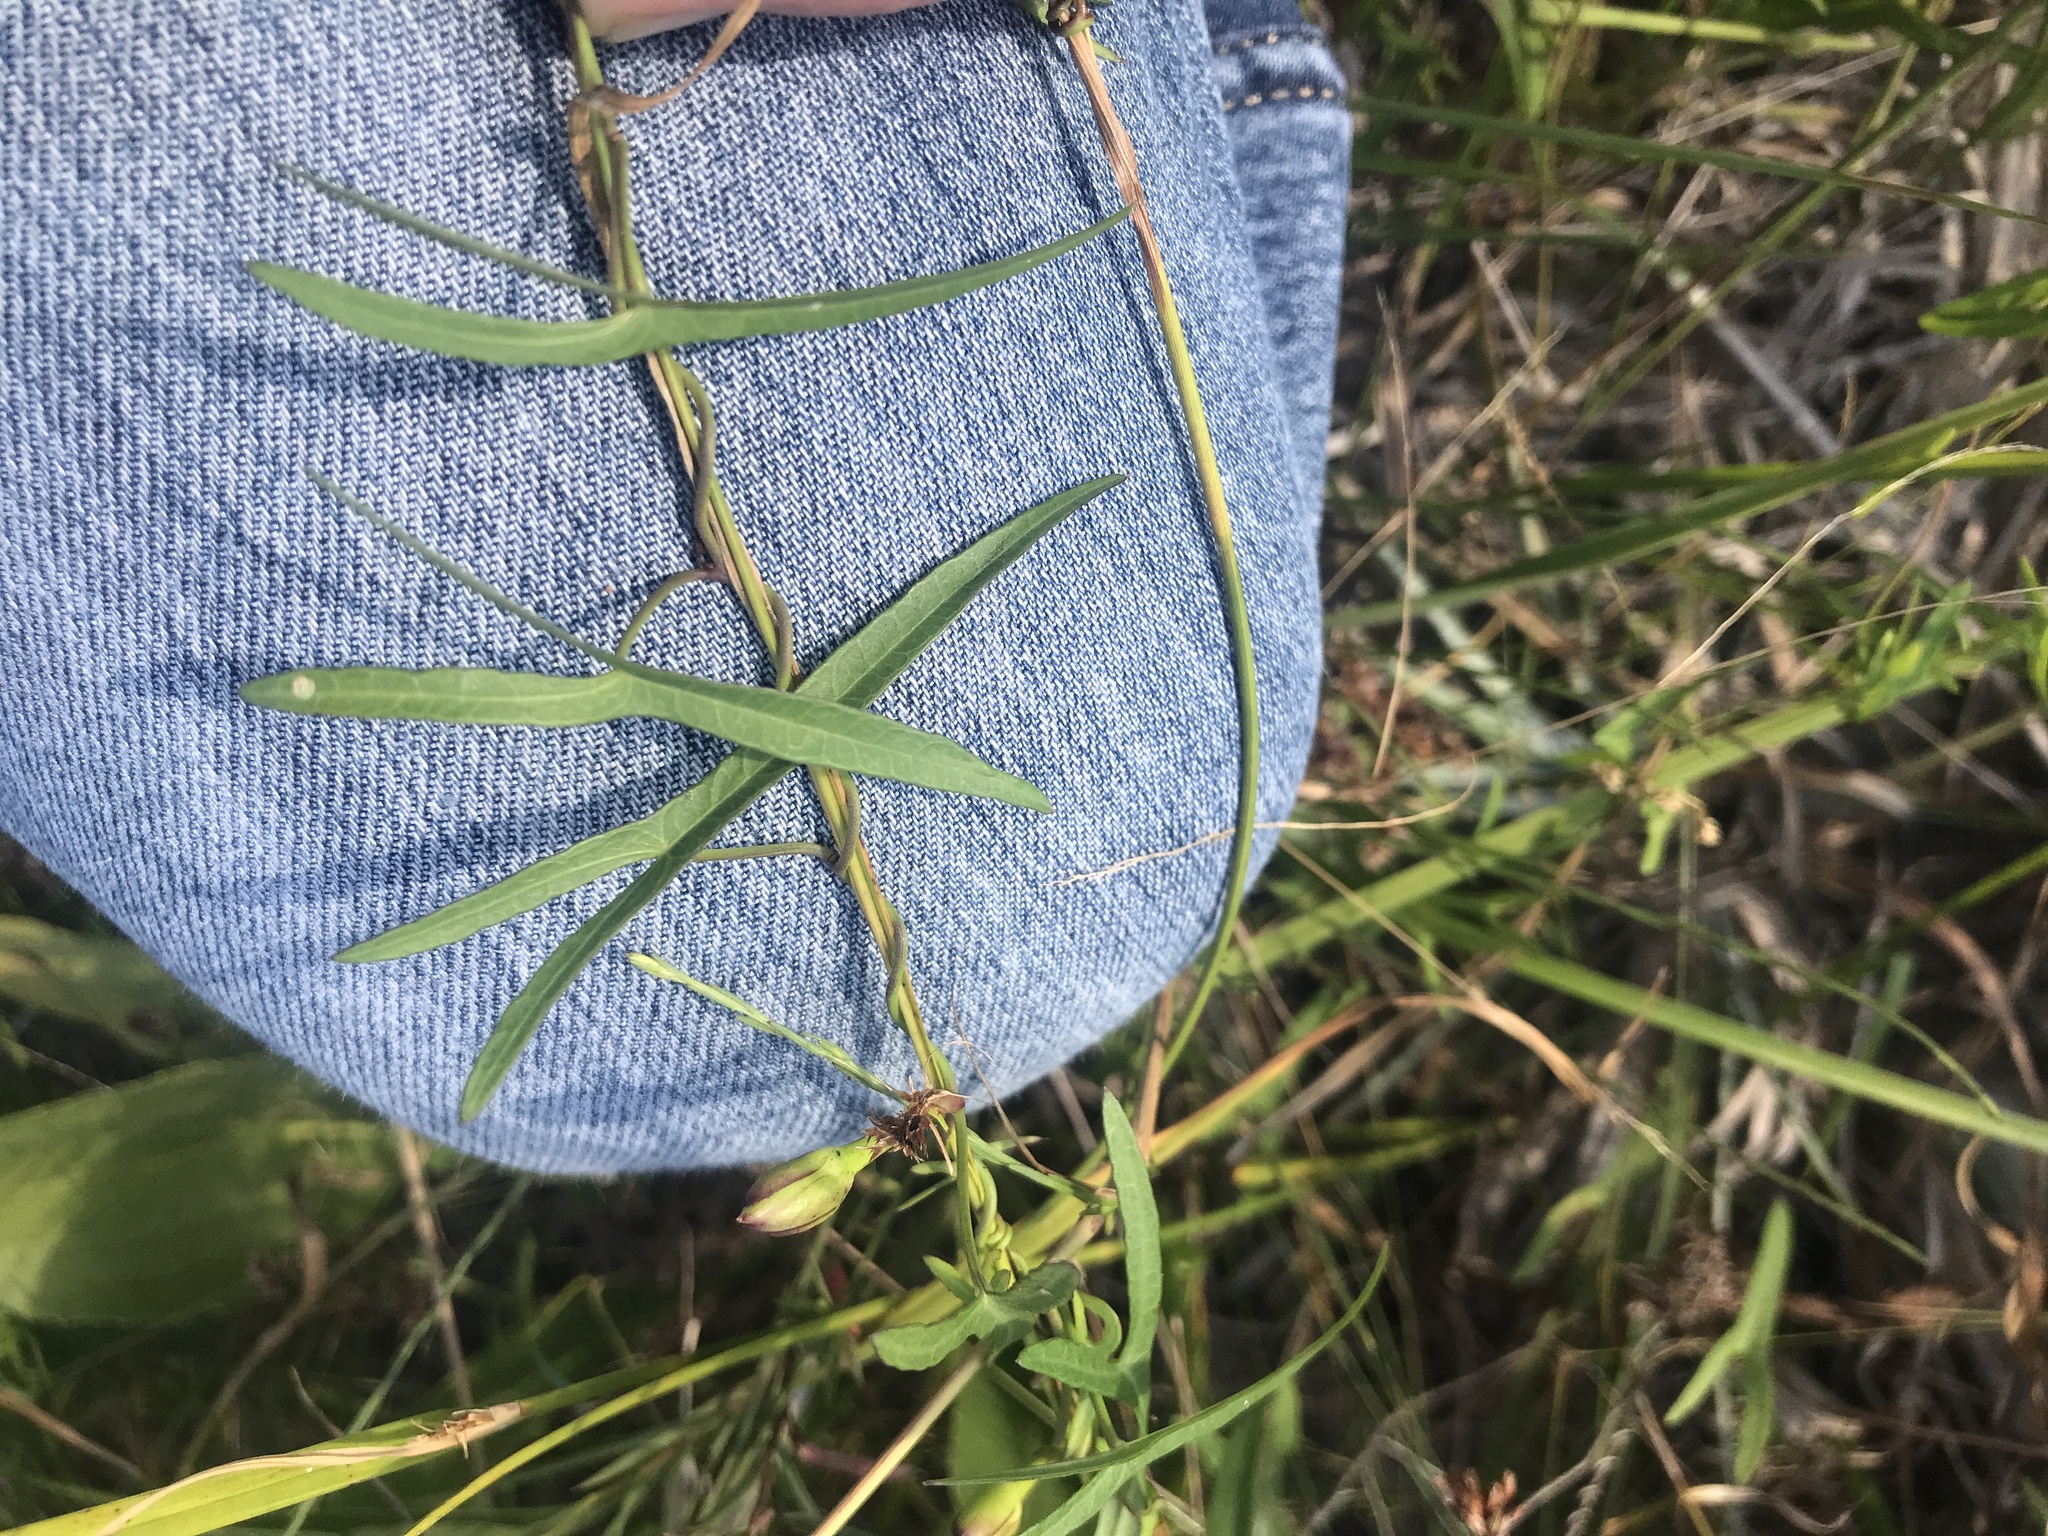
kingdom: Plantae
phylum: Tracheophyta
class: Magnoliopsida
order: Solanales
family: Convolvulaceae
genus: Ipomoea
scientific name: Ipomoea sagittata
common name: Saltmarsh morning glory
